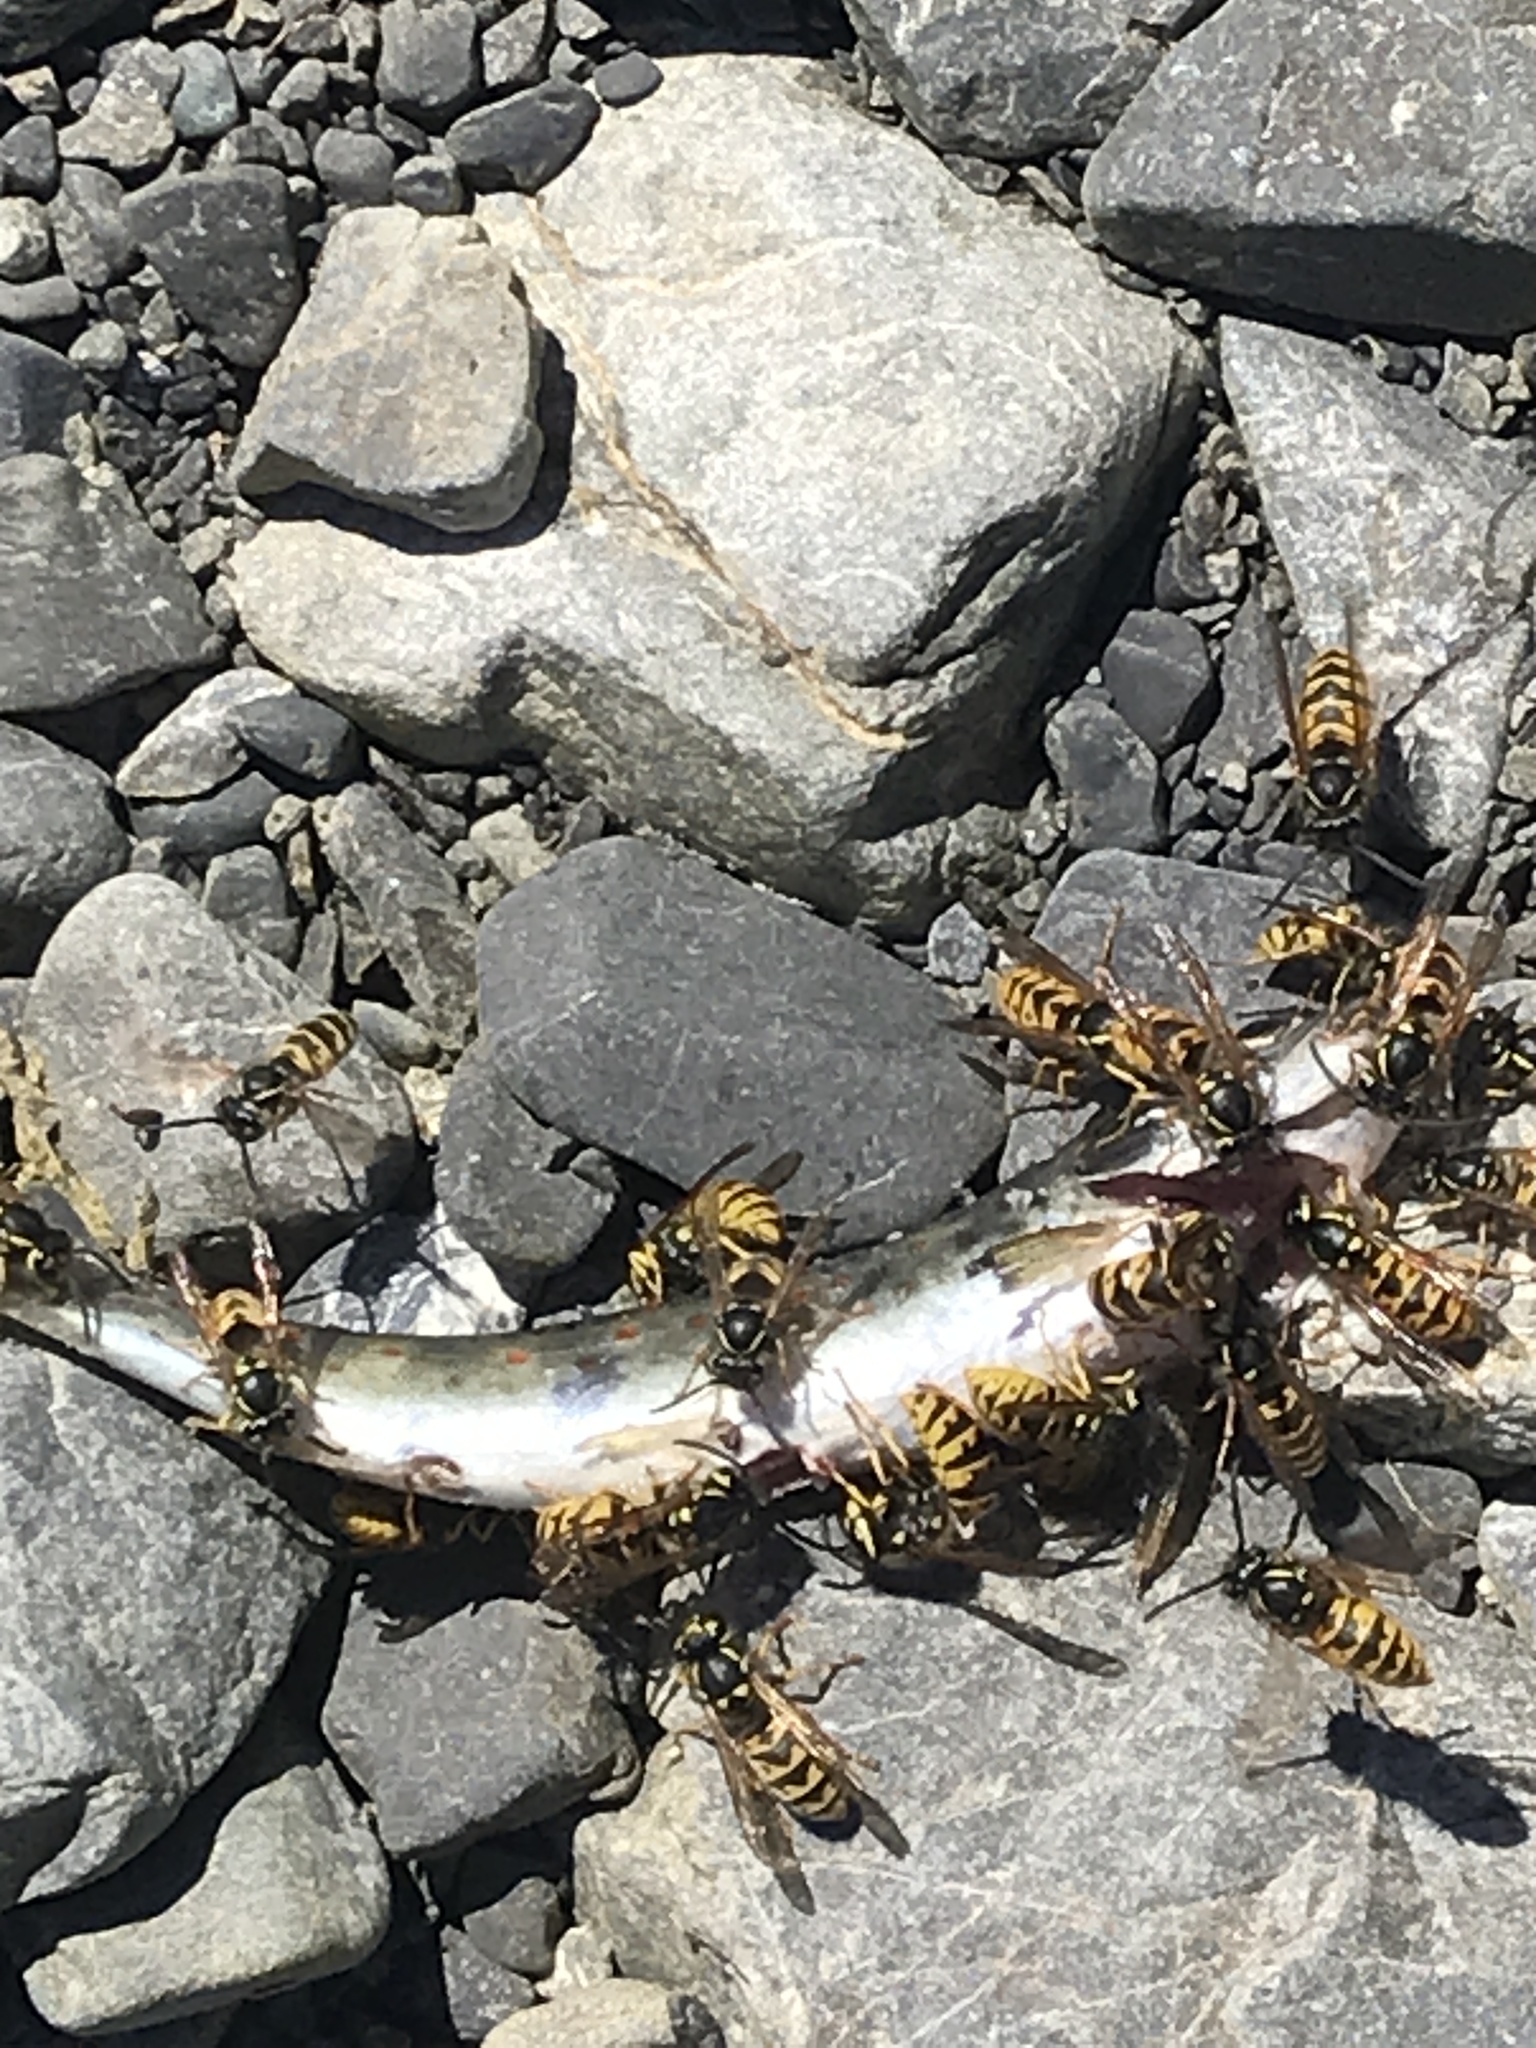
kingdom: Animalia
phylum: Chordata
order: Salmoniformes
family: Salmonidae
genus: Salmo
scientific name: Salmo trutta
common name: Brown trout
